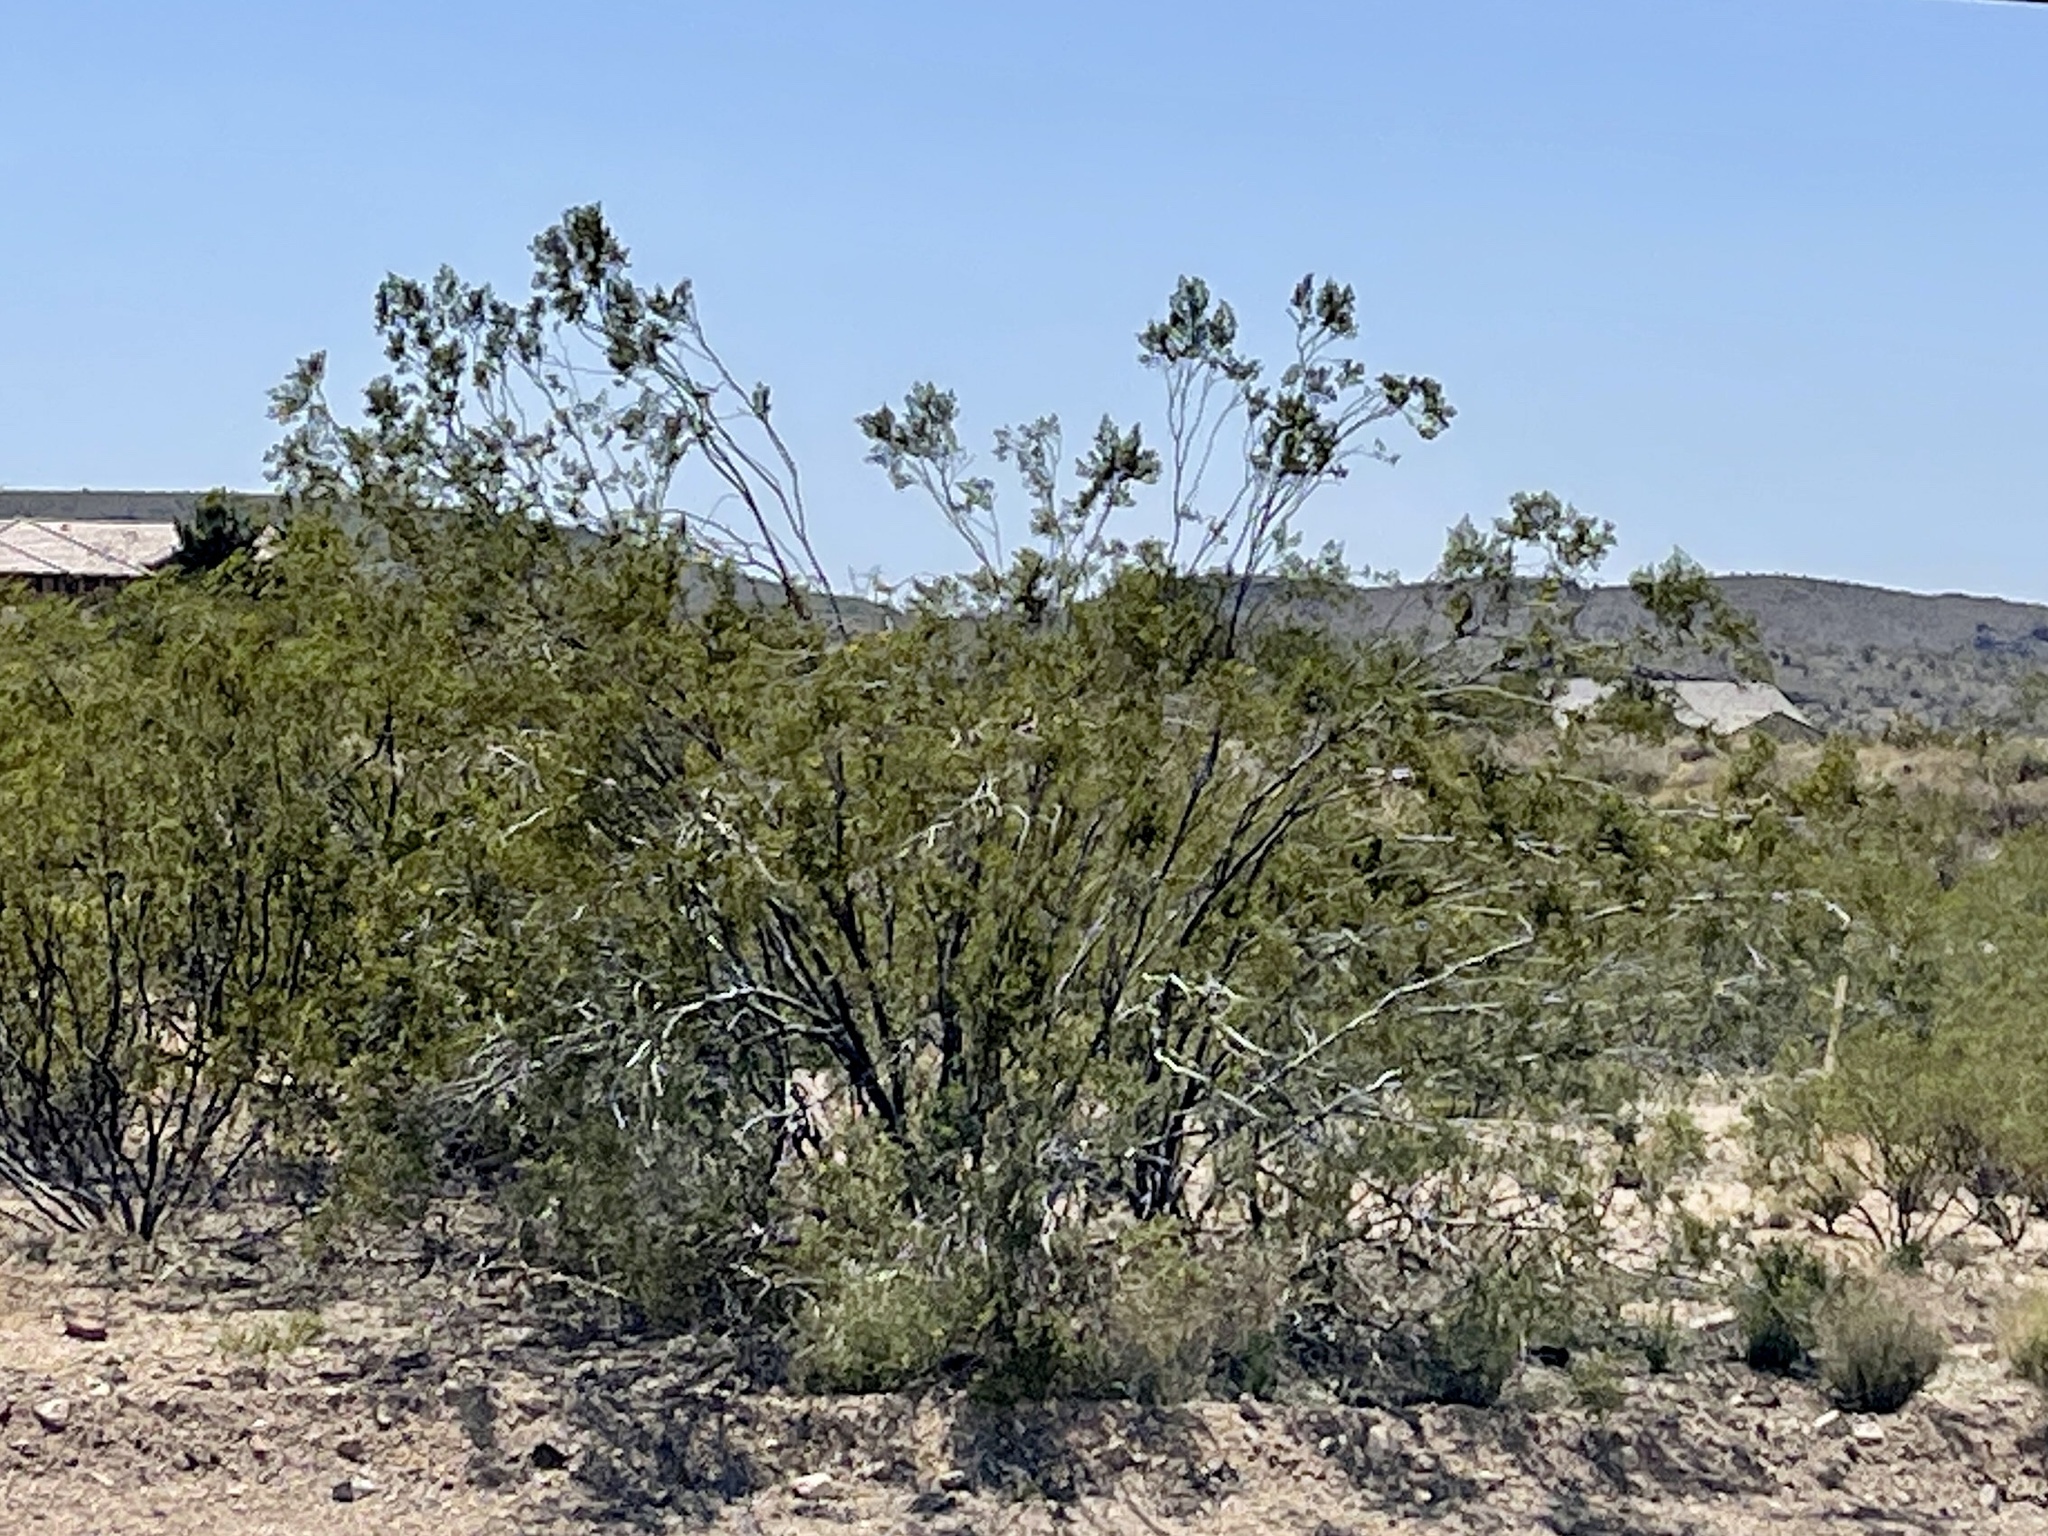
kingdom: Plantae
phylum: Tracheophyta
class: Magnoliopsida
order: Zygophyllales
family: Zygophyllaceae
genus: Larrea
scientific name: Larrea tridentata
